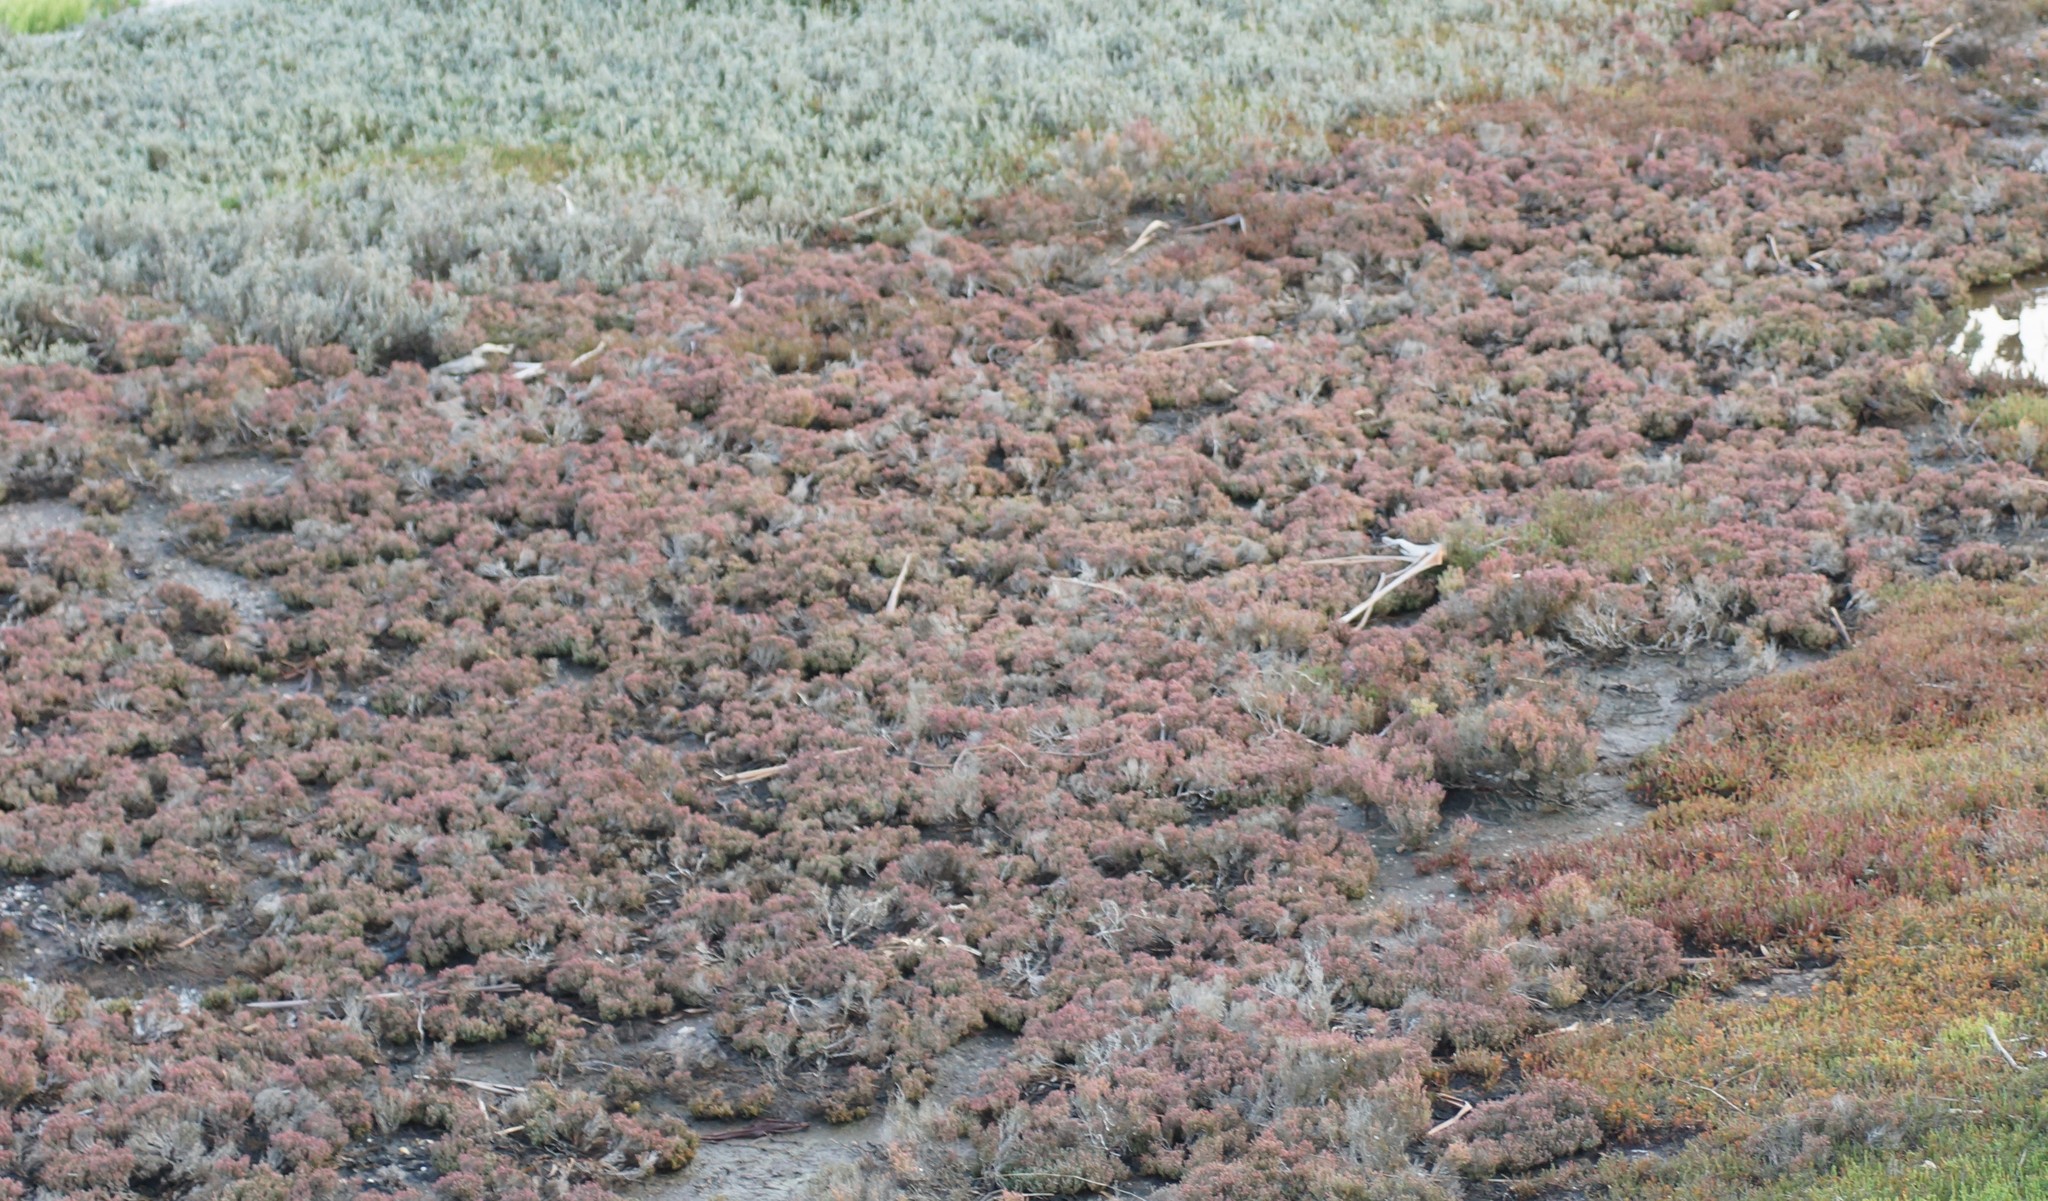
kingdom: Plantae
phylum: Tracheophyta
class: Magnoliopsida
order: Caryophyllales
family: Amaranthaceae
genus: Tecticornia
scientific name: Tecticornia halocnemoides
